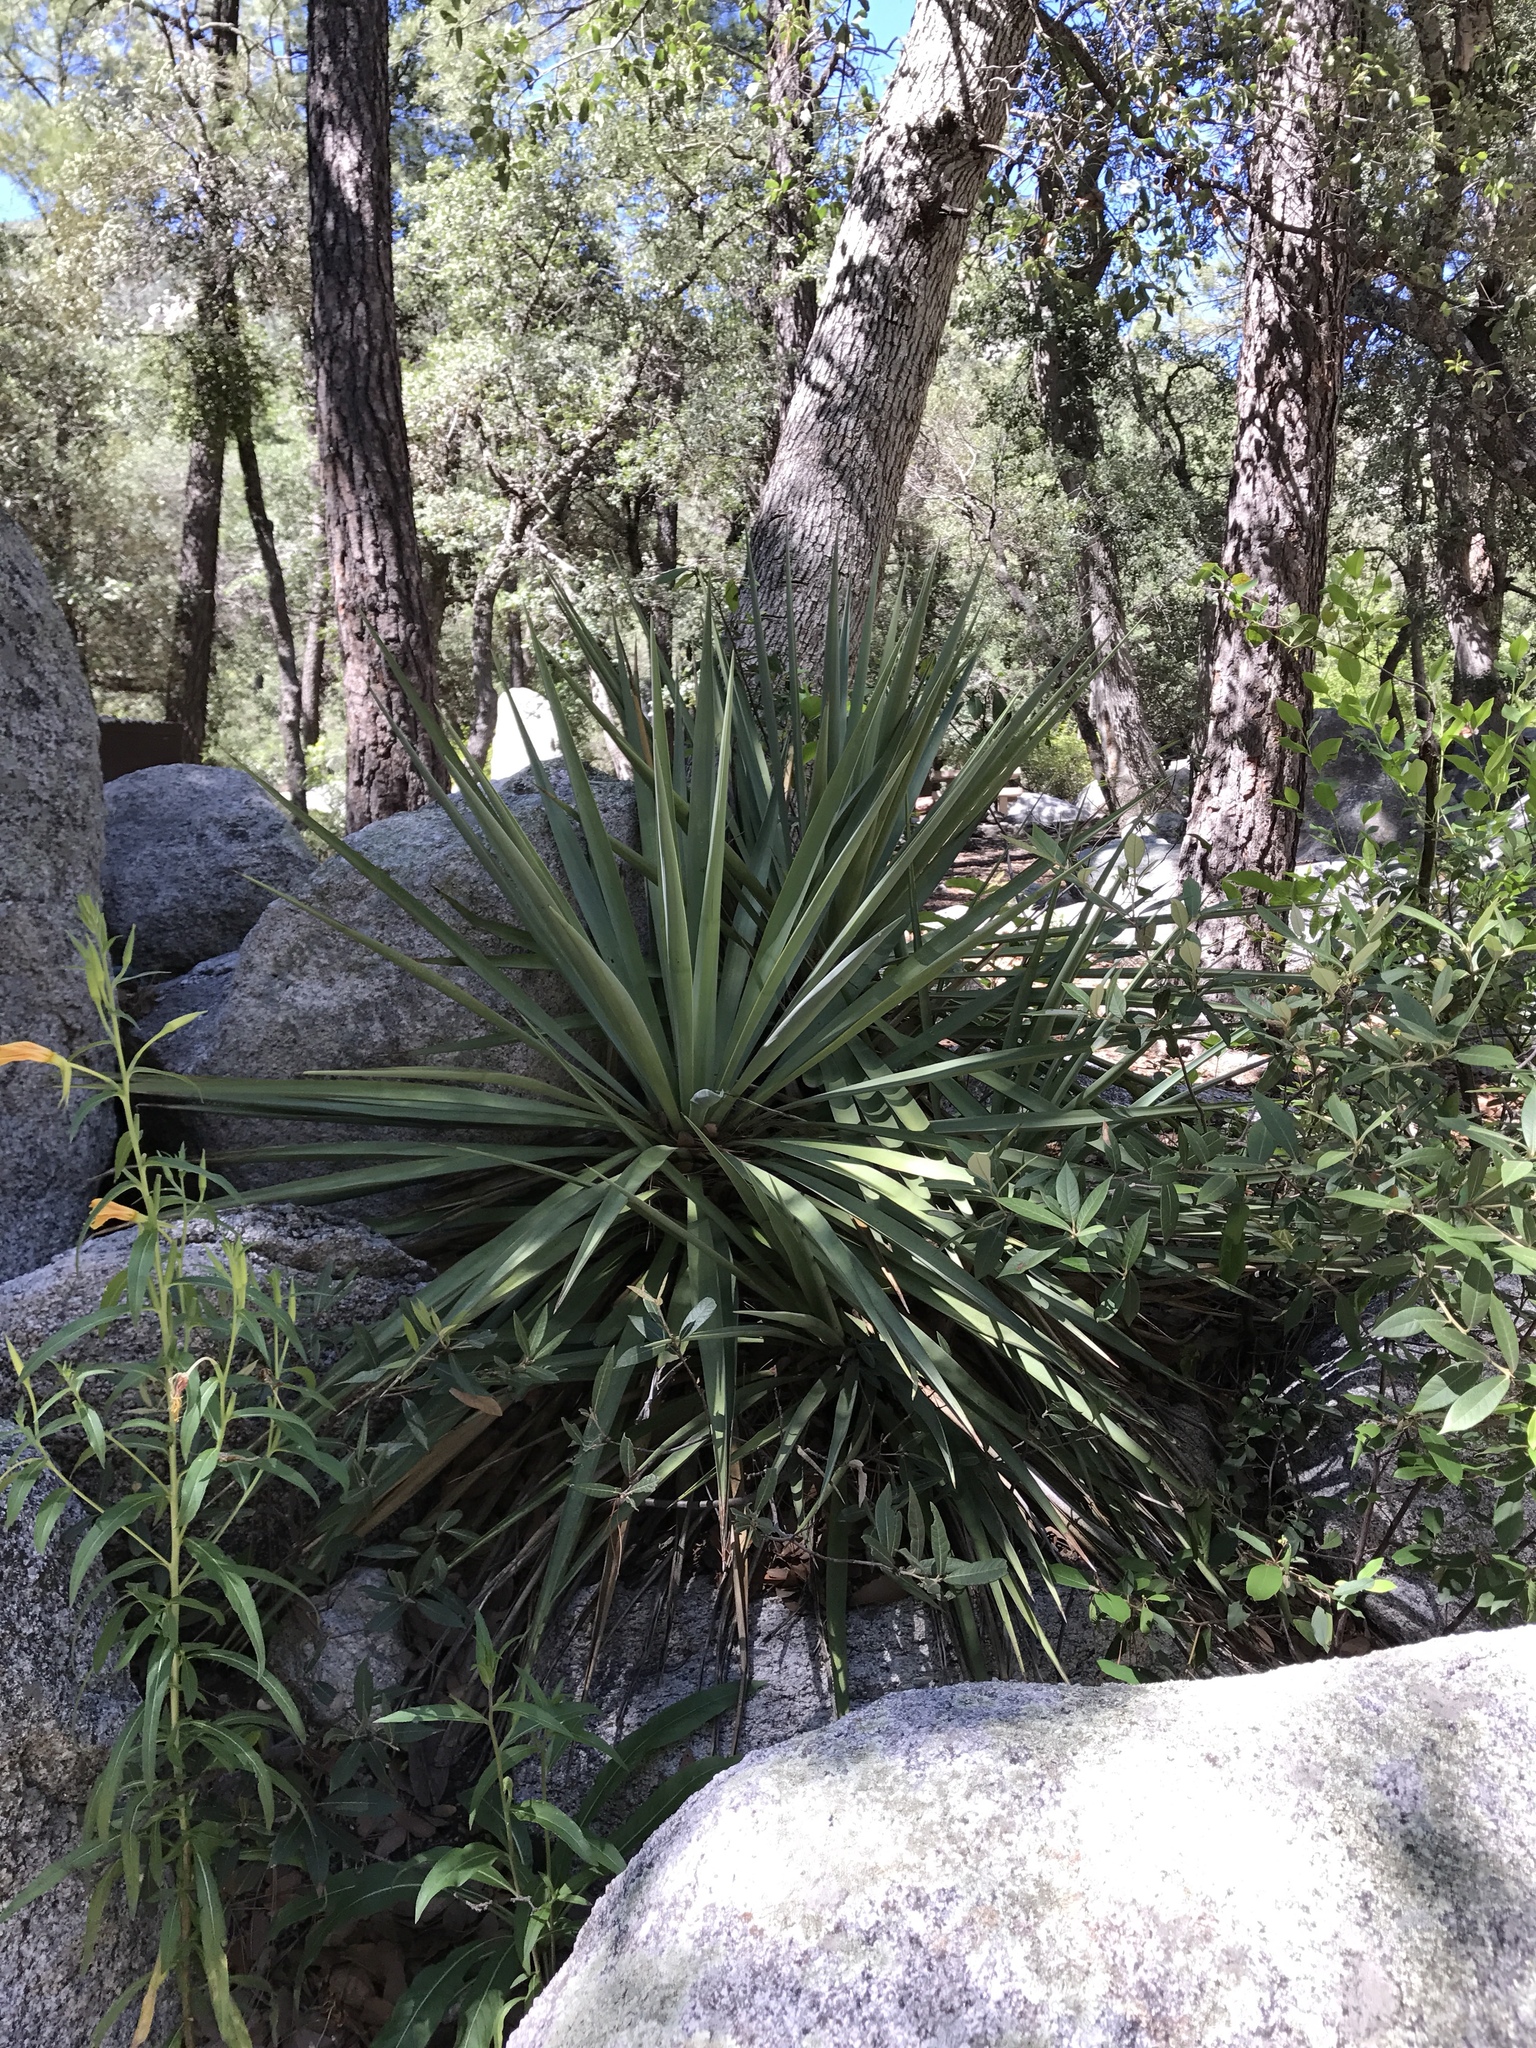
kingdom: Plantae
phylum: Tracheophyta
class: Liliopsida
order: Asparagales
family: Asparagaceae
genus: Yucca
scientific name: Yucca schottii
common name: Hoary yucca
